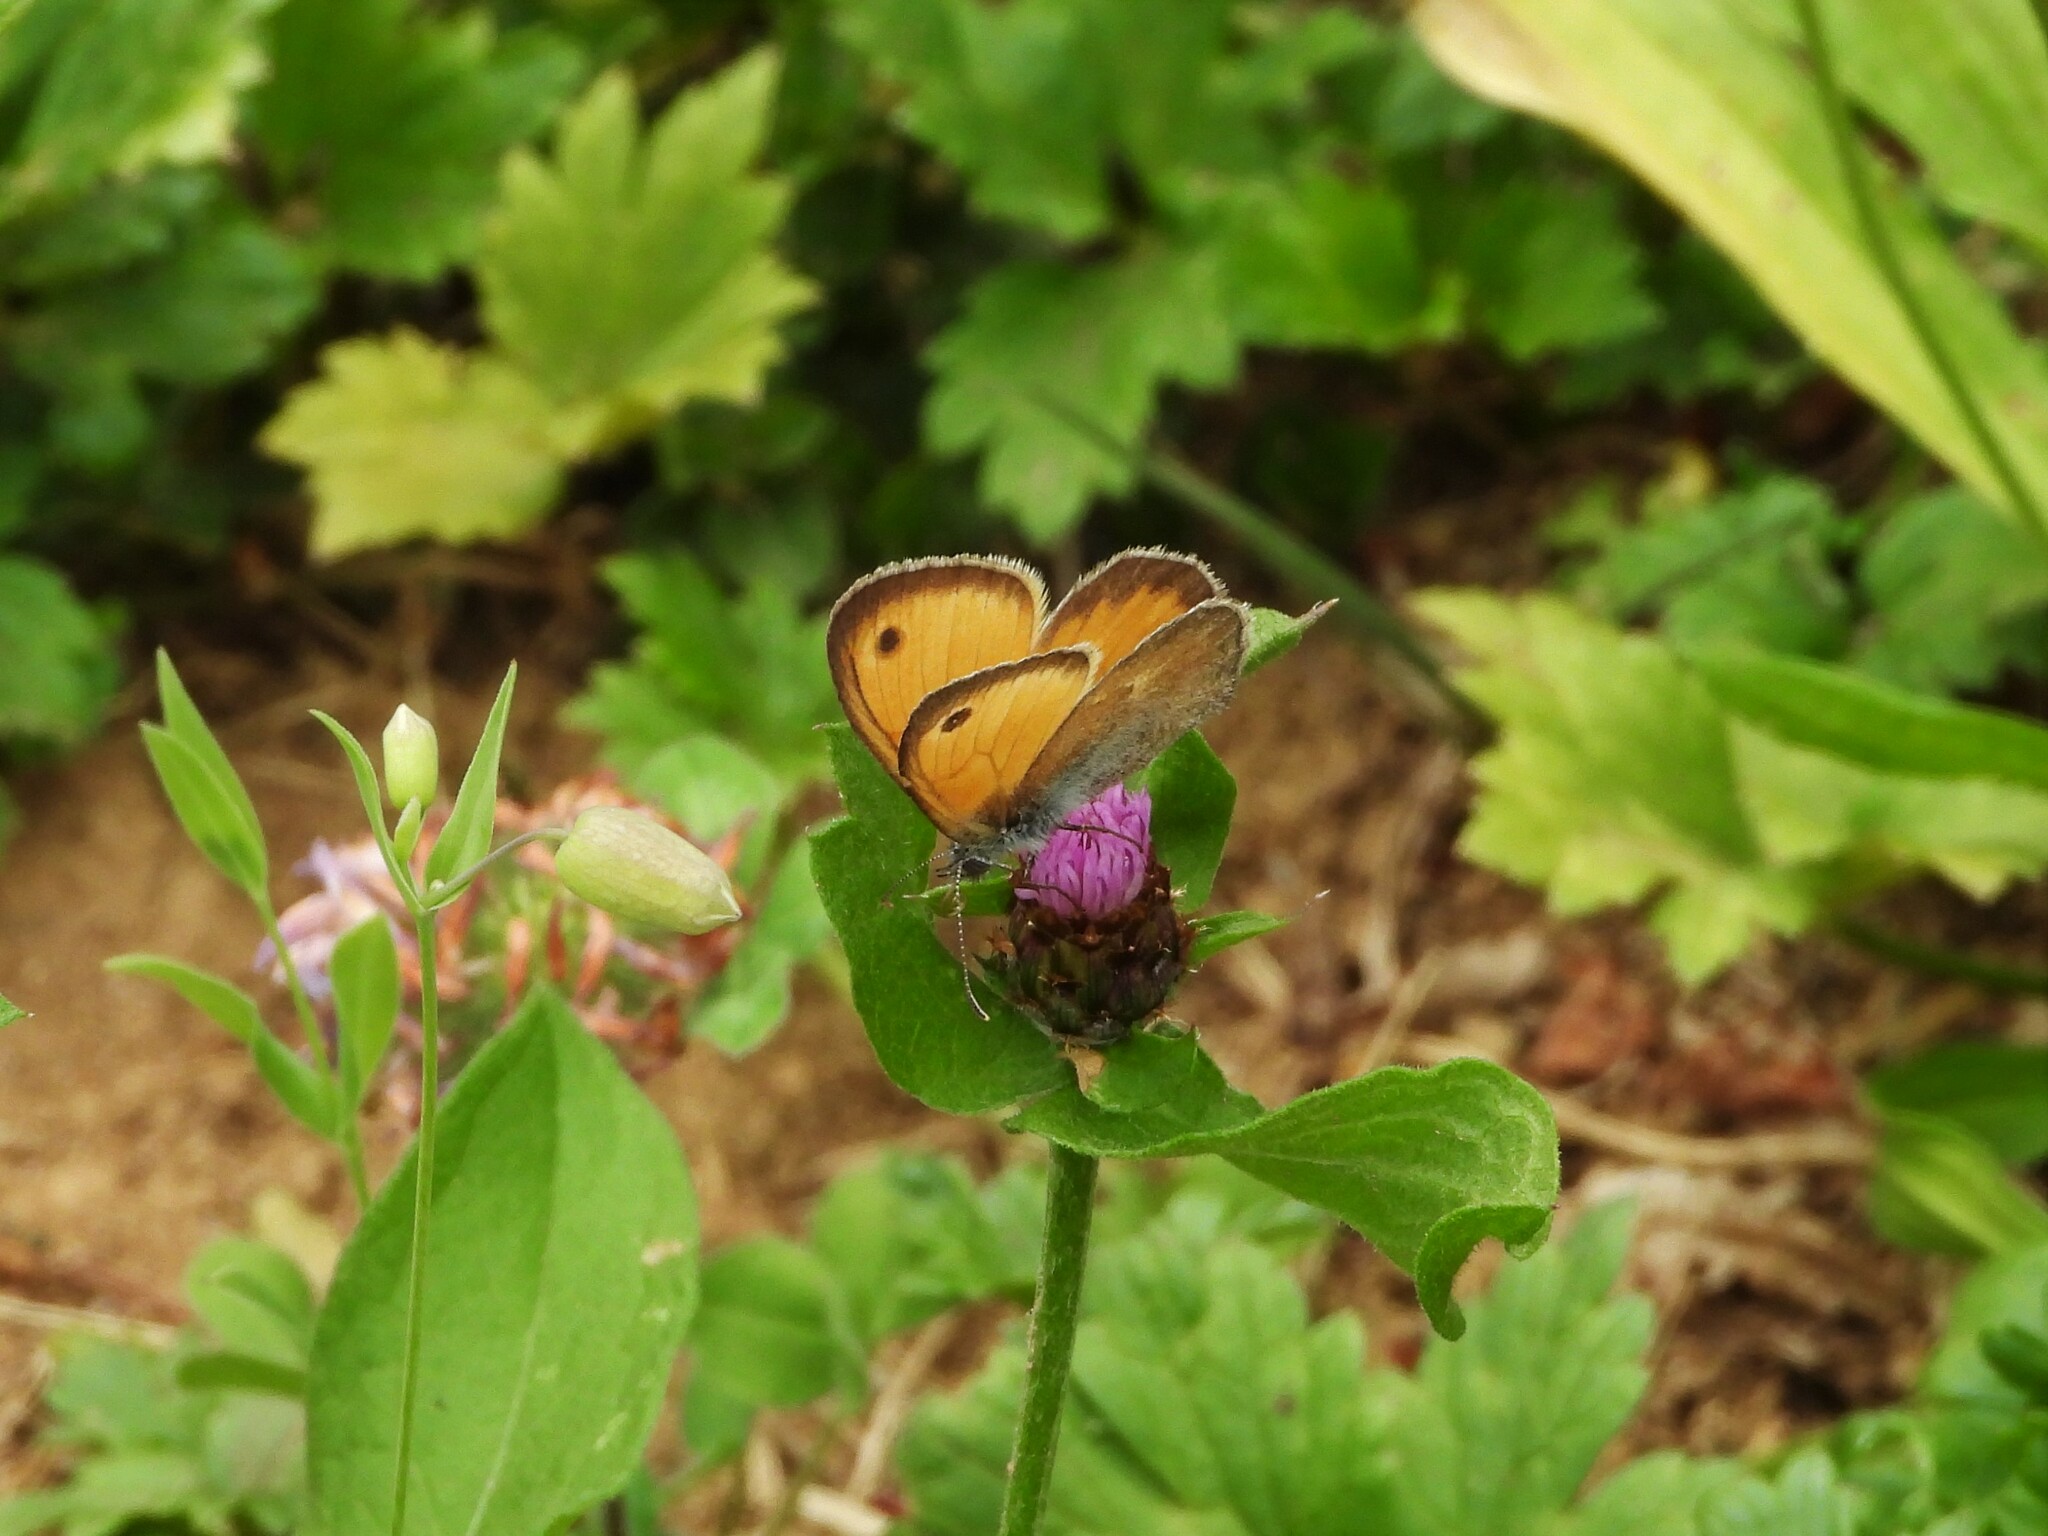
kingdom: Animalia
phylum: Arthropoda
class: Insecta
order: Lepidoptera
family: Nymphalidae
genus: Coenonympha
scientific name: Coenonympha pamphilus
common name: Small heath
